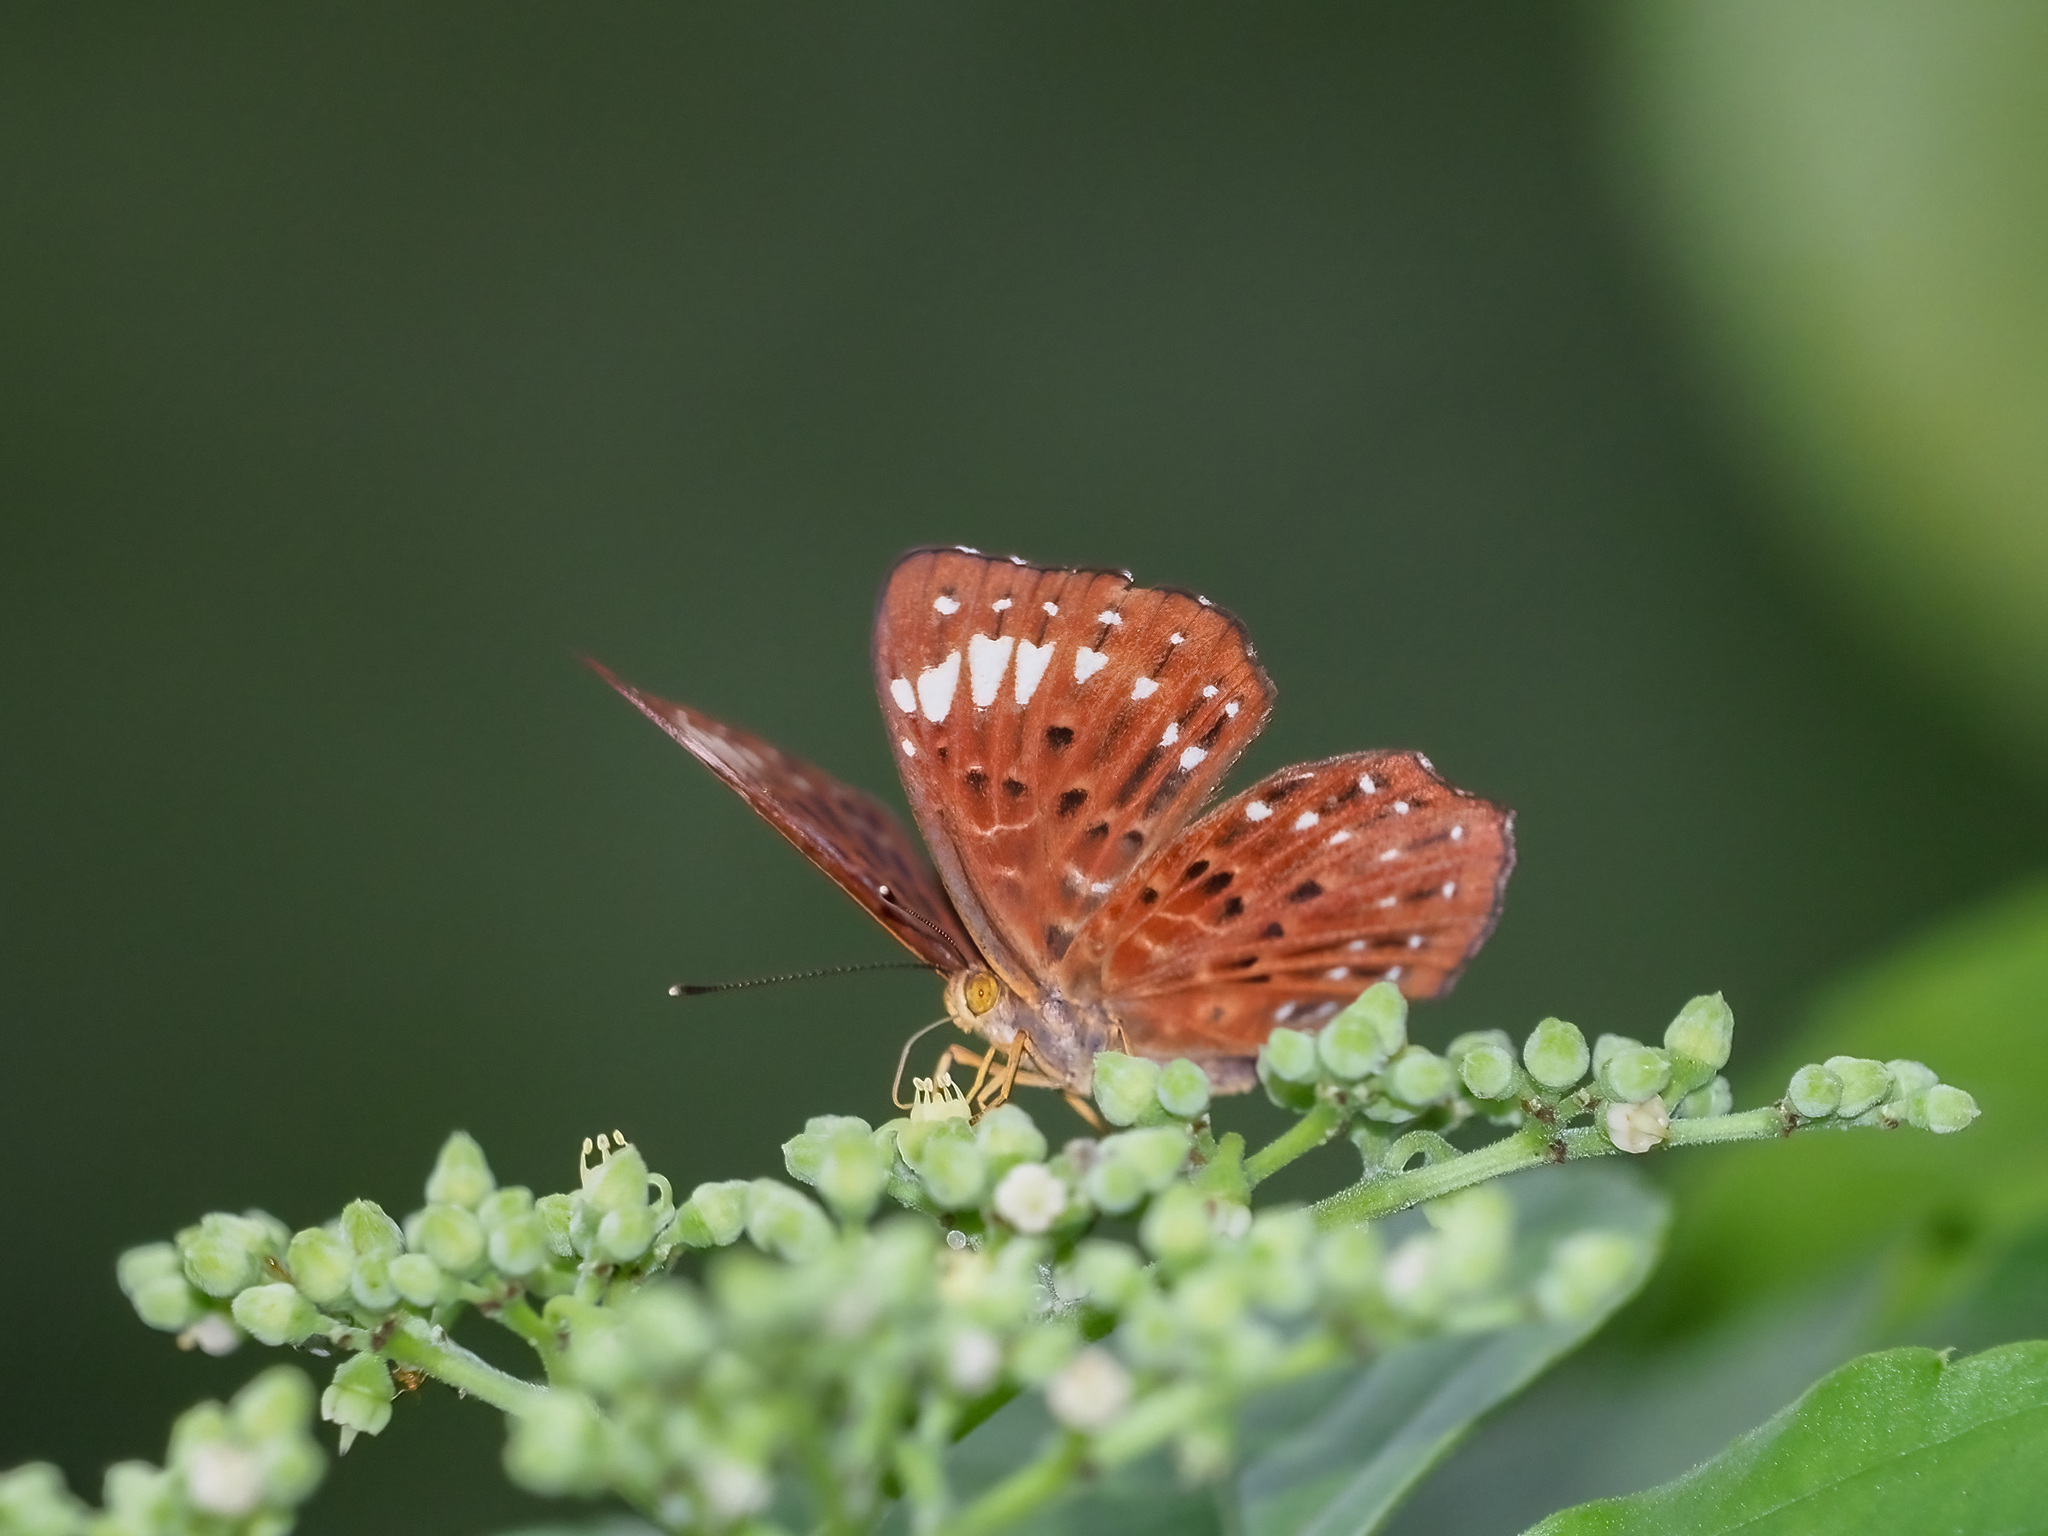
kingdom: Animalia
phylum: Arthropoda
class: Insecta
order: Lepidoptera
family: Riodinidae
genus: Zemeros
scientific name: Zemeros flegyas
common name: Punchinello
